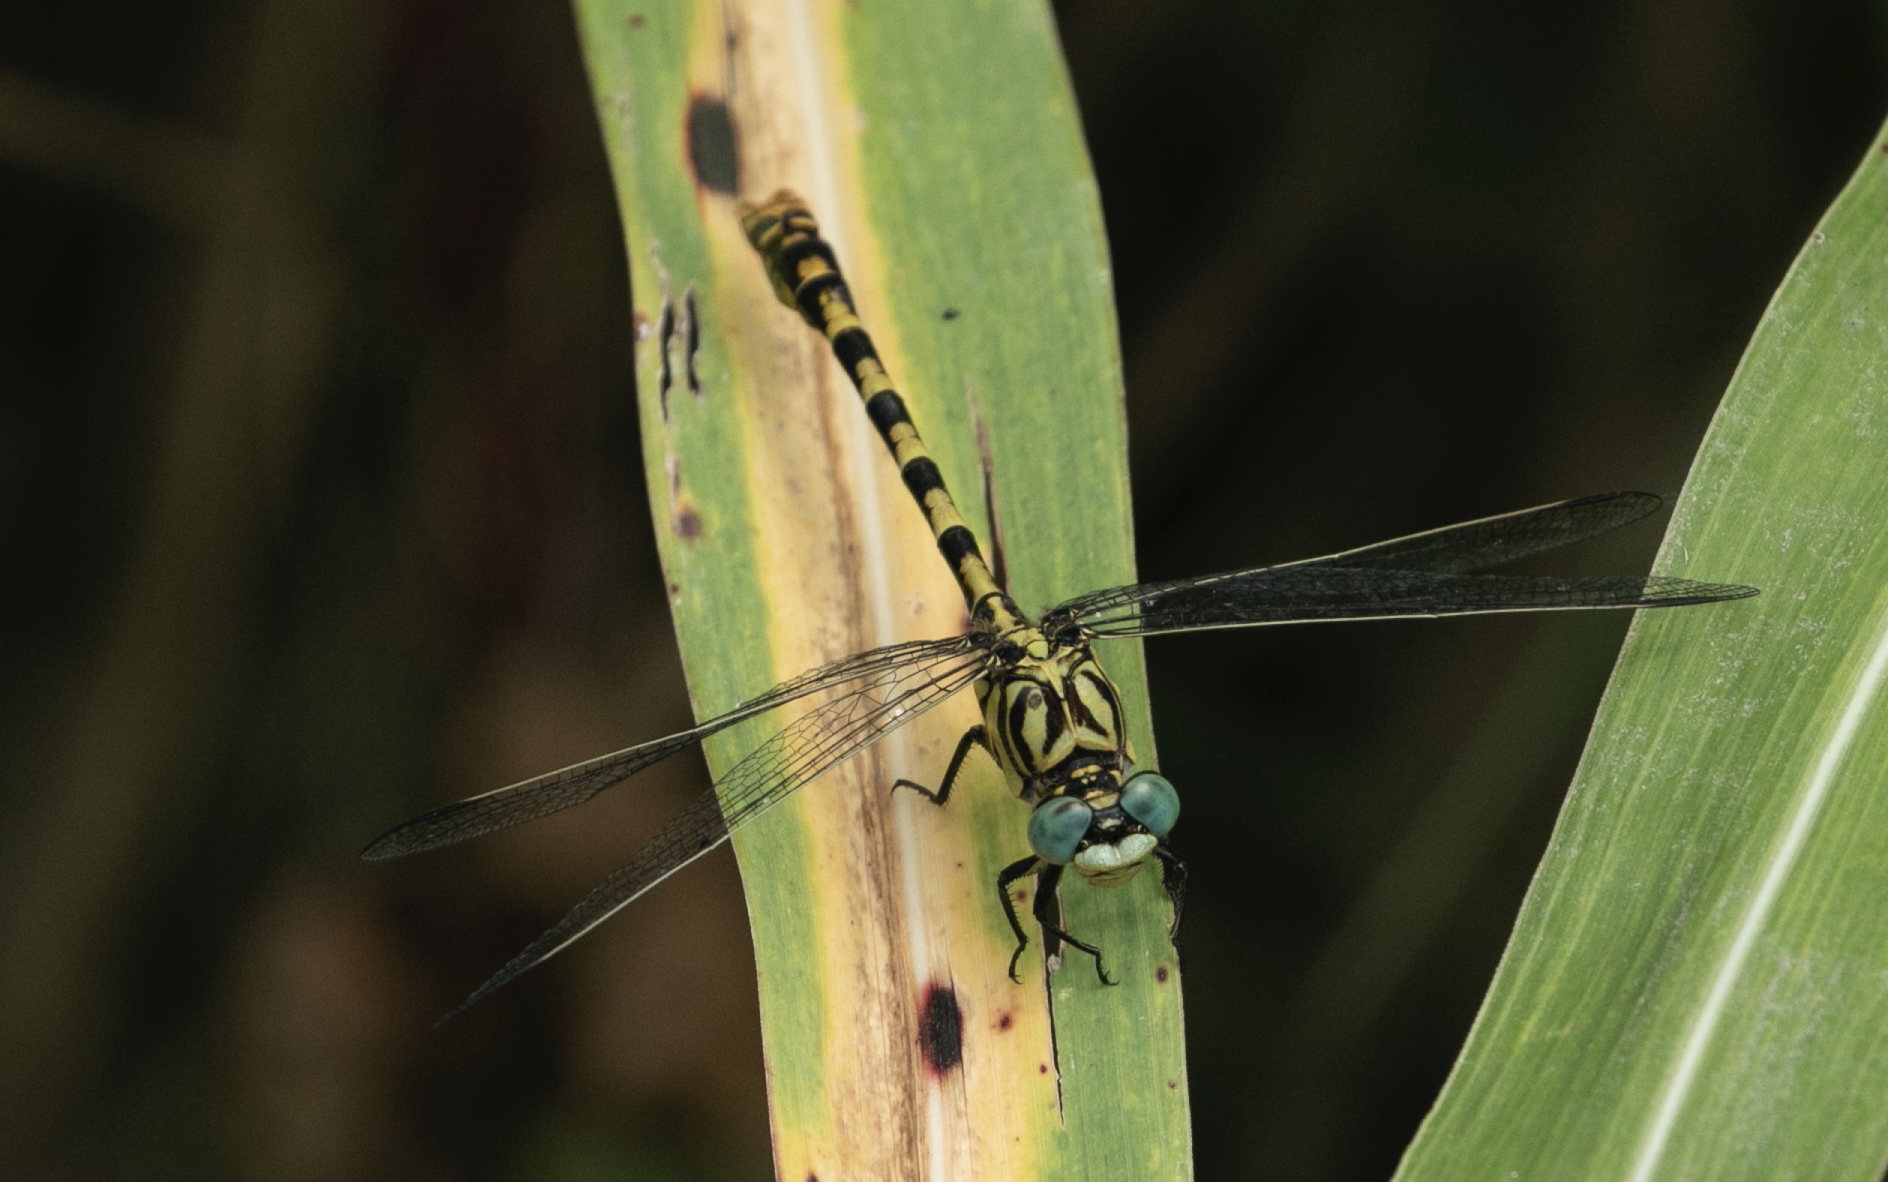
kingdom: Animalia
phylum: Arthropoda
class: Insecta
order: Odonata
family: Gomphidae
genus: Onychogomphus
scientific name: Onychogomphus forcipatus
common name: Small pincertail
